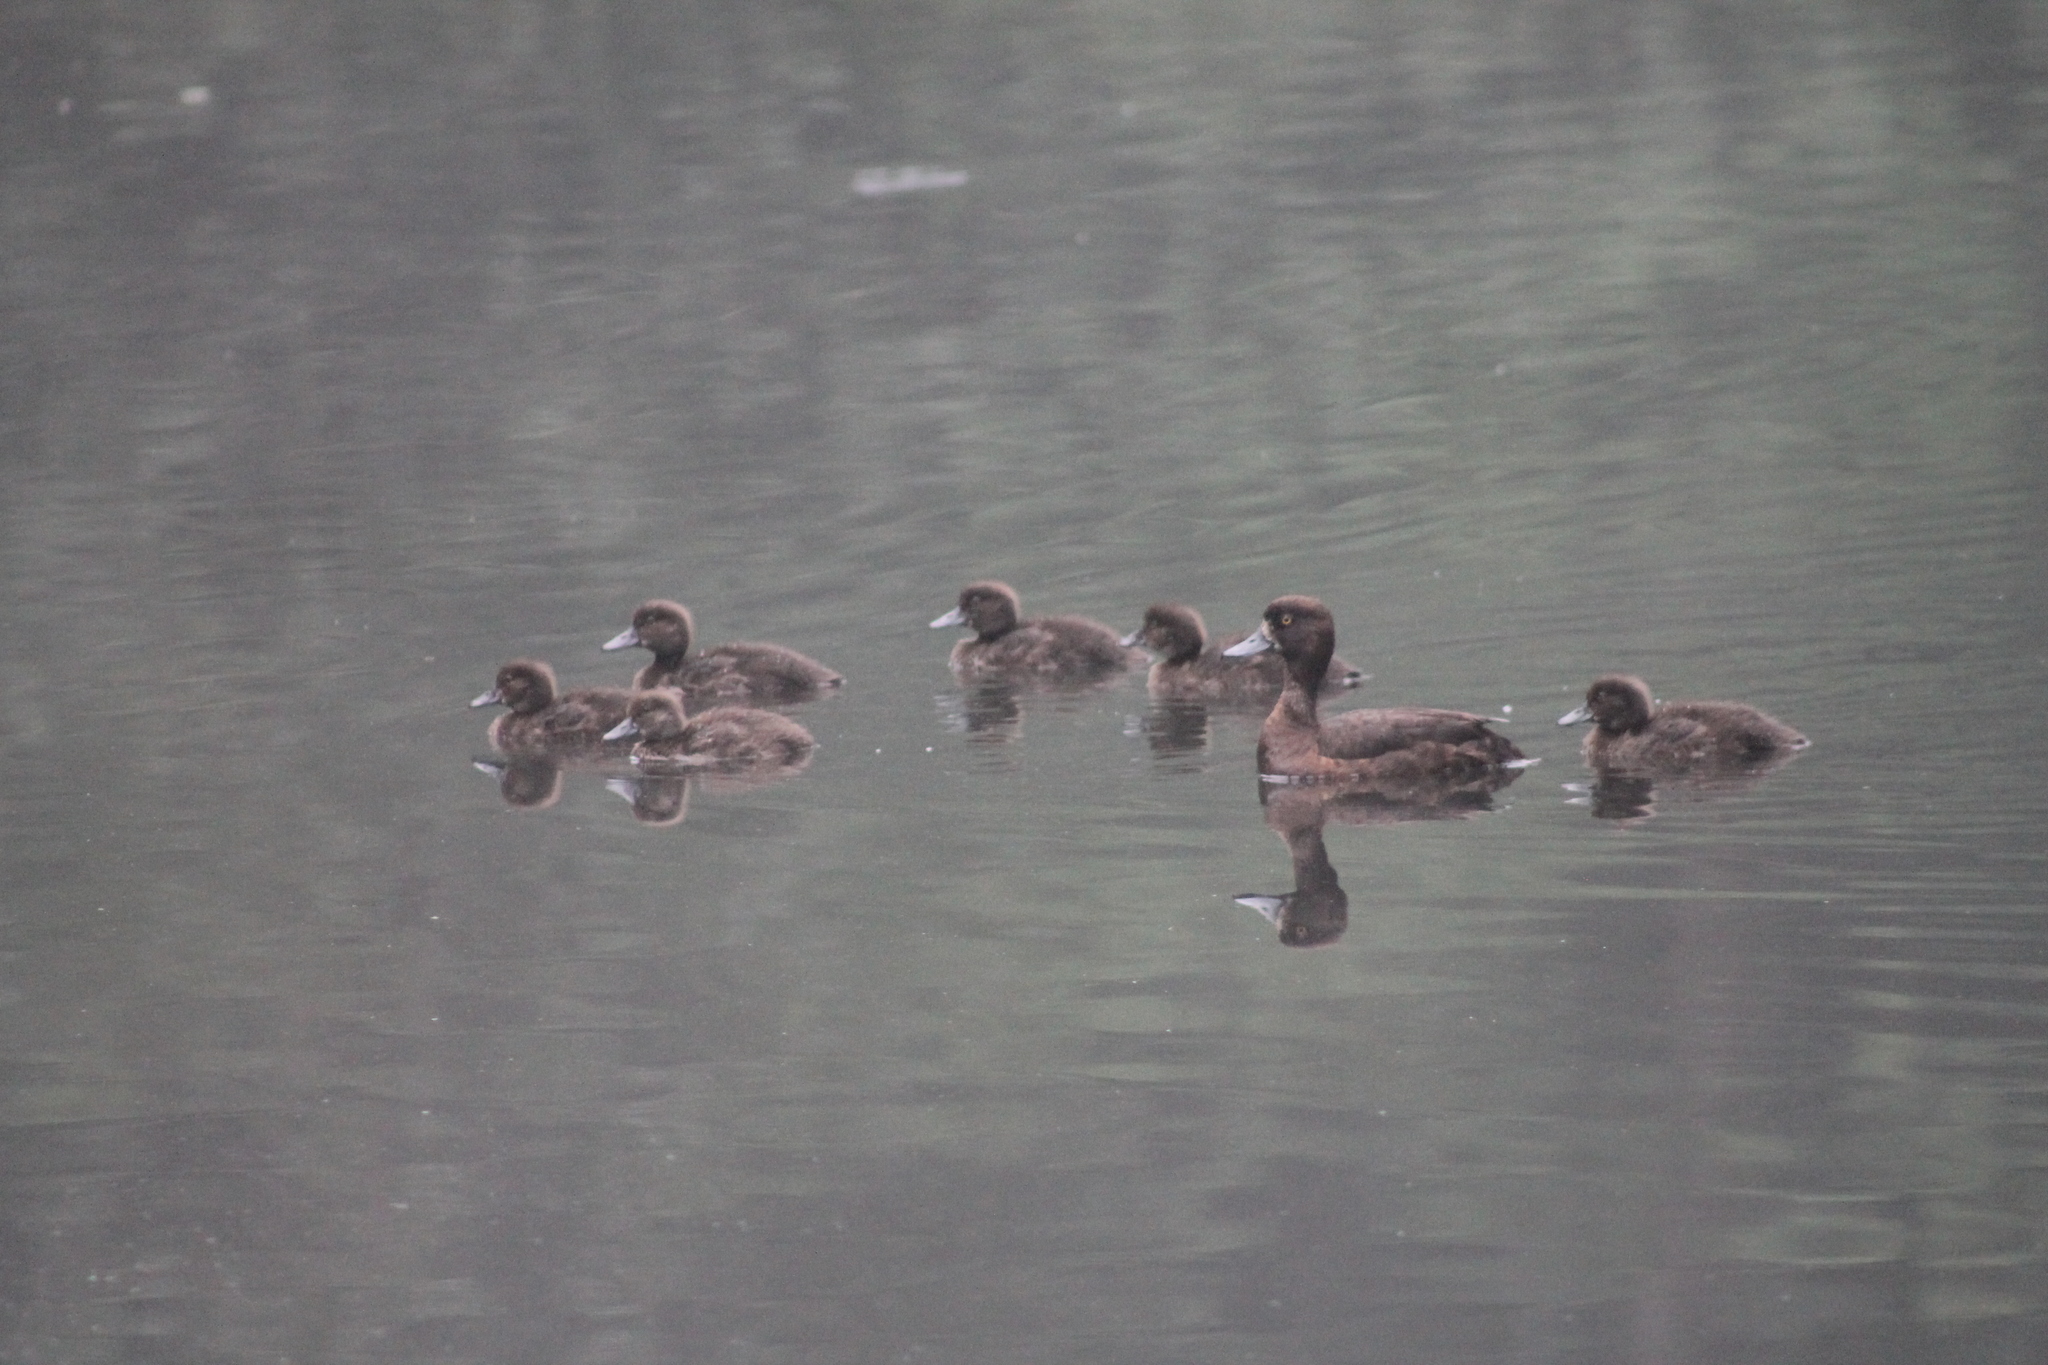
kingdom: Animalia
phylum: Chordata
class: Aves
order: Anseriformes
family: Anatidae
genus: Aythya
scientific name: Aythya fuligula
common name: Tufted duck
